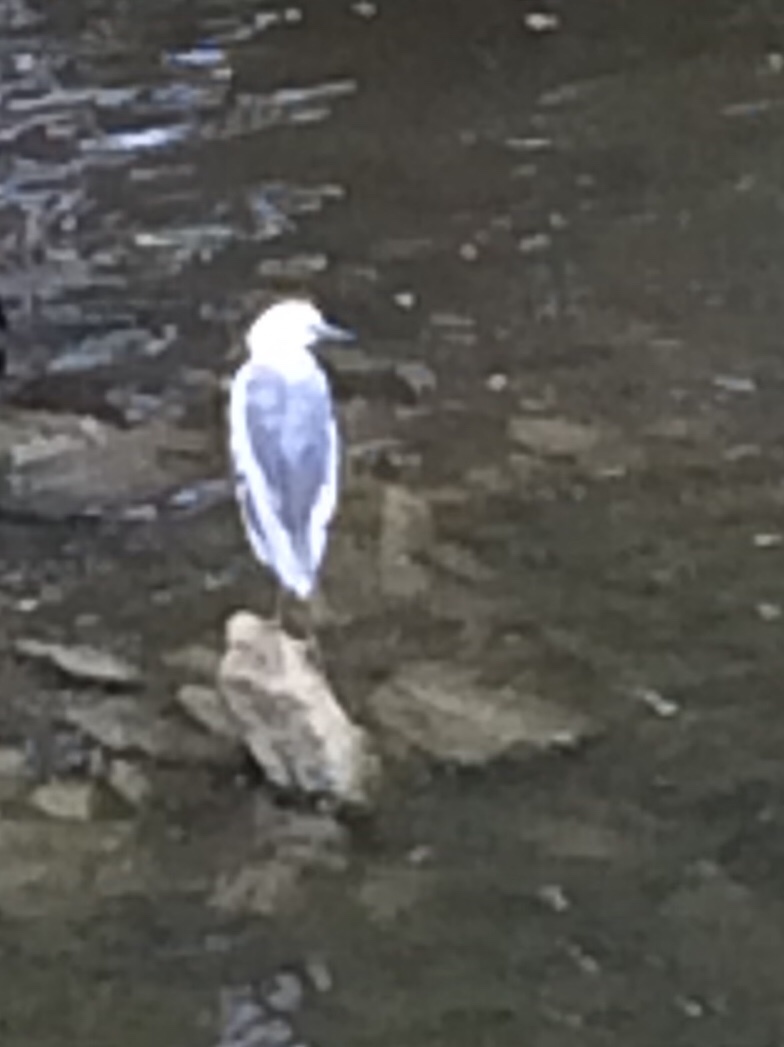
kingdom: Animalia
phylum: Chordata
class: Aves
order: Pelecaniformes
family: Ardeidae
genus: Egretta
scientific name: Egretta caerulea
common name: Little blue heron
